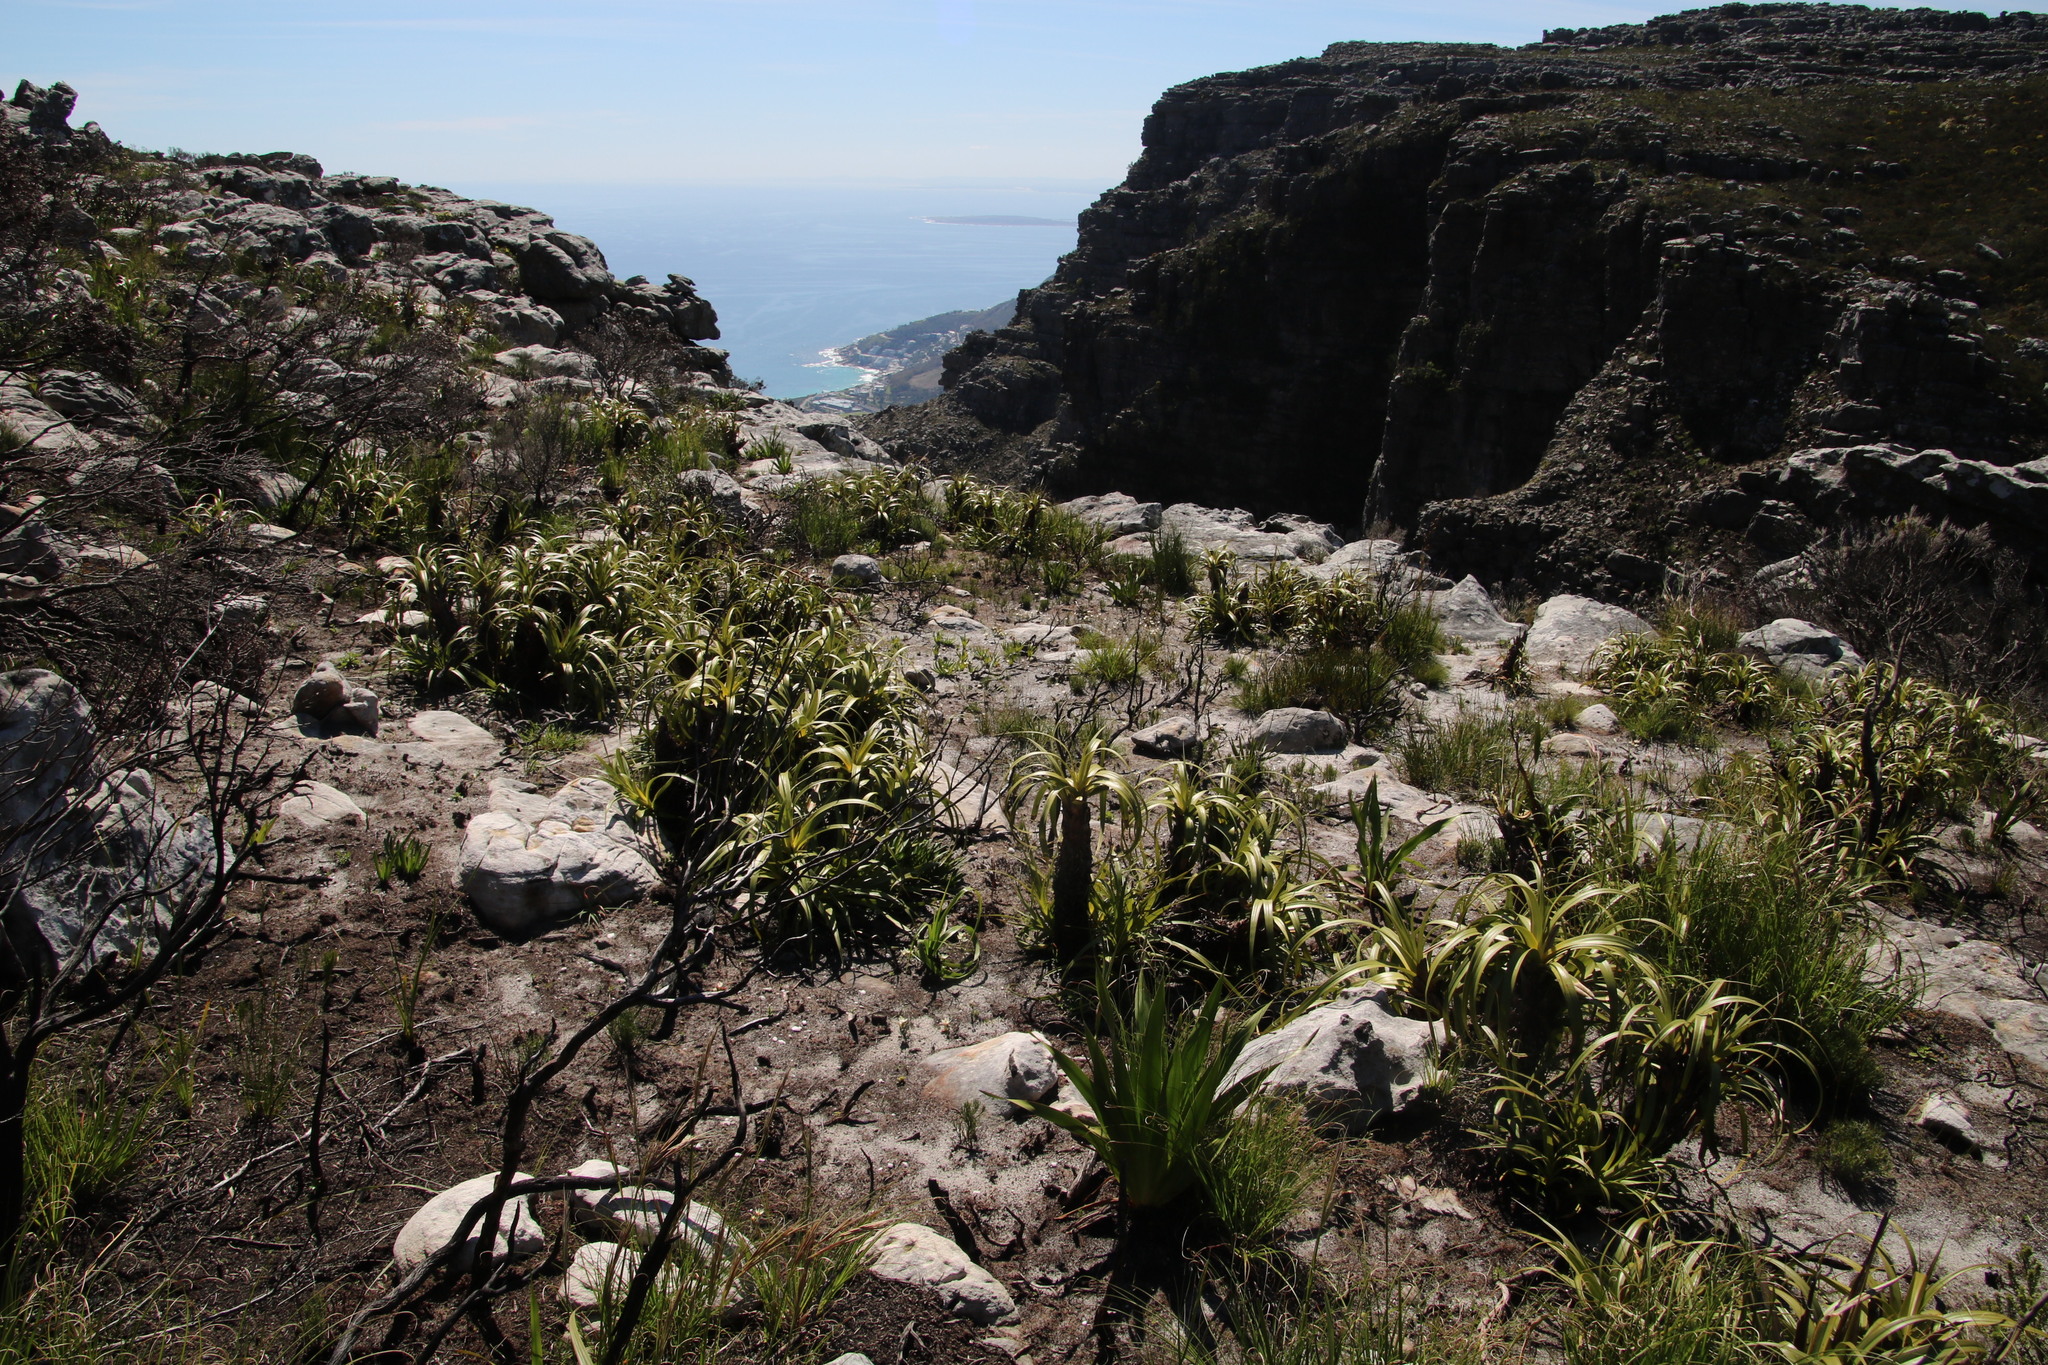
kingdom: Plantae
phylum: Tracheophyta
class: Liliopsida
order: Poales
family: Cyperaceae
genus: Tetraria
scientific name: Tetraria thermalis
